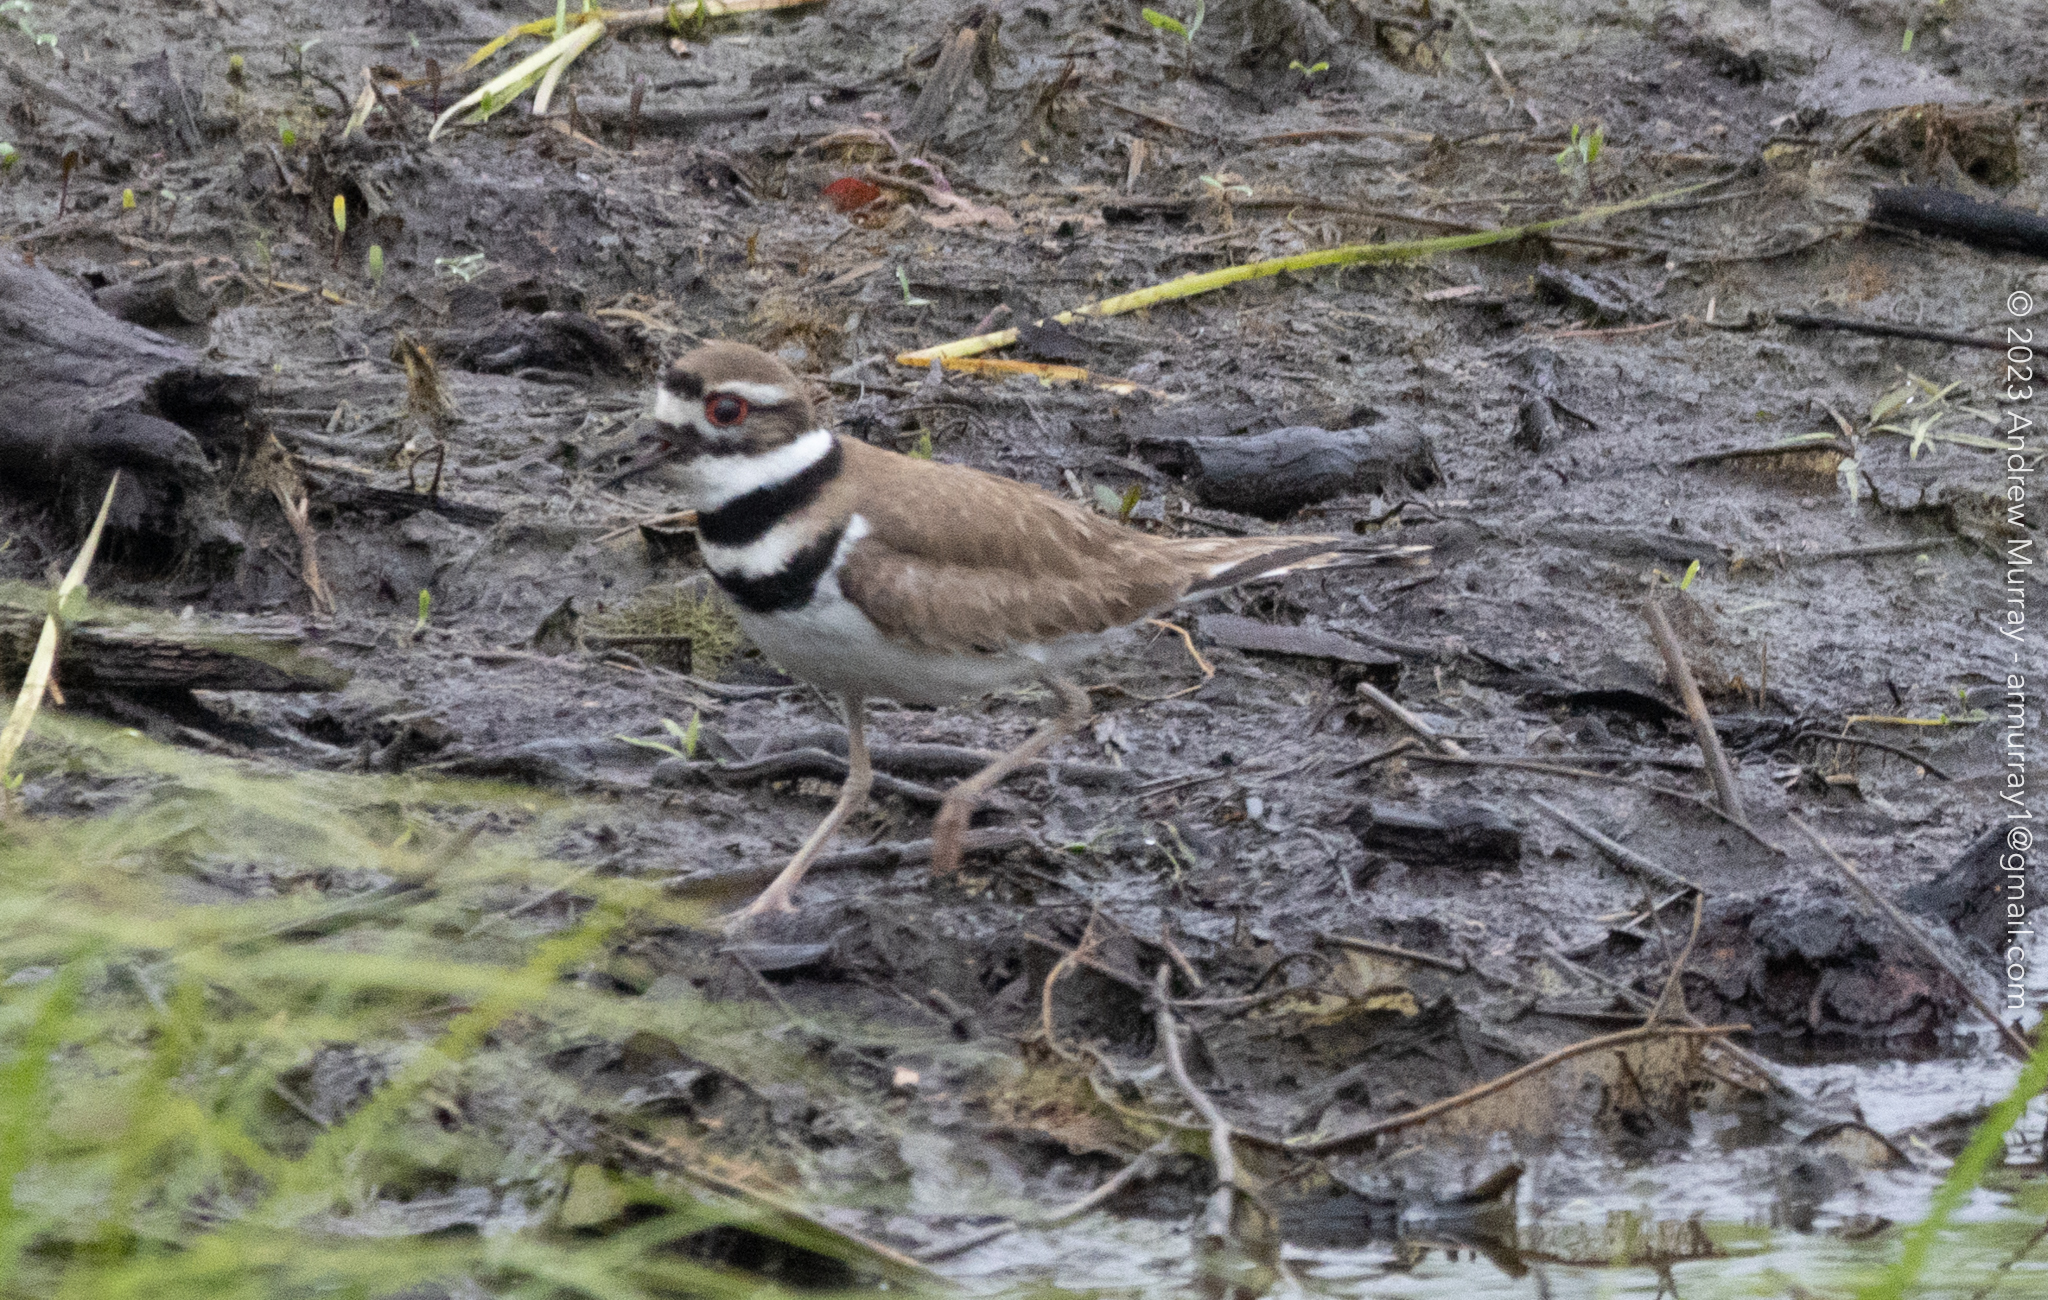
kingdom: Animalia
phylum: Chordata
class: Aves
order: Charadriiformes
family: Charadriidae
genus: Charadrius
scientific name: Charadrius vociferus
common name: Killdeer
